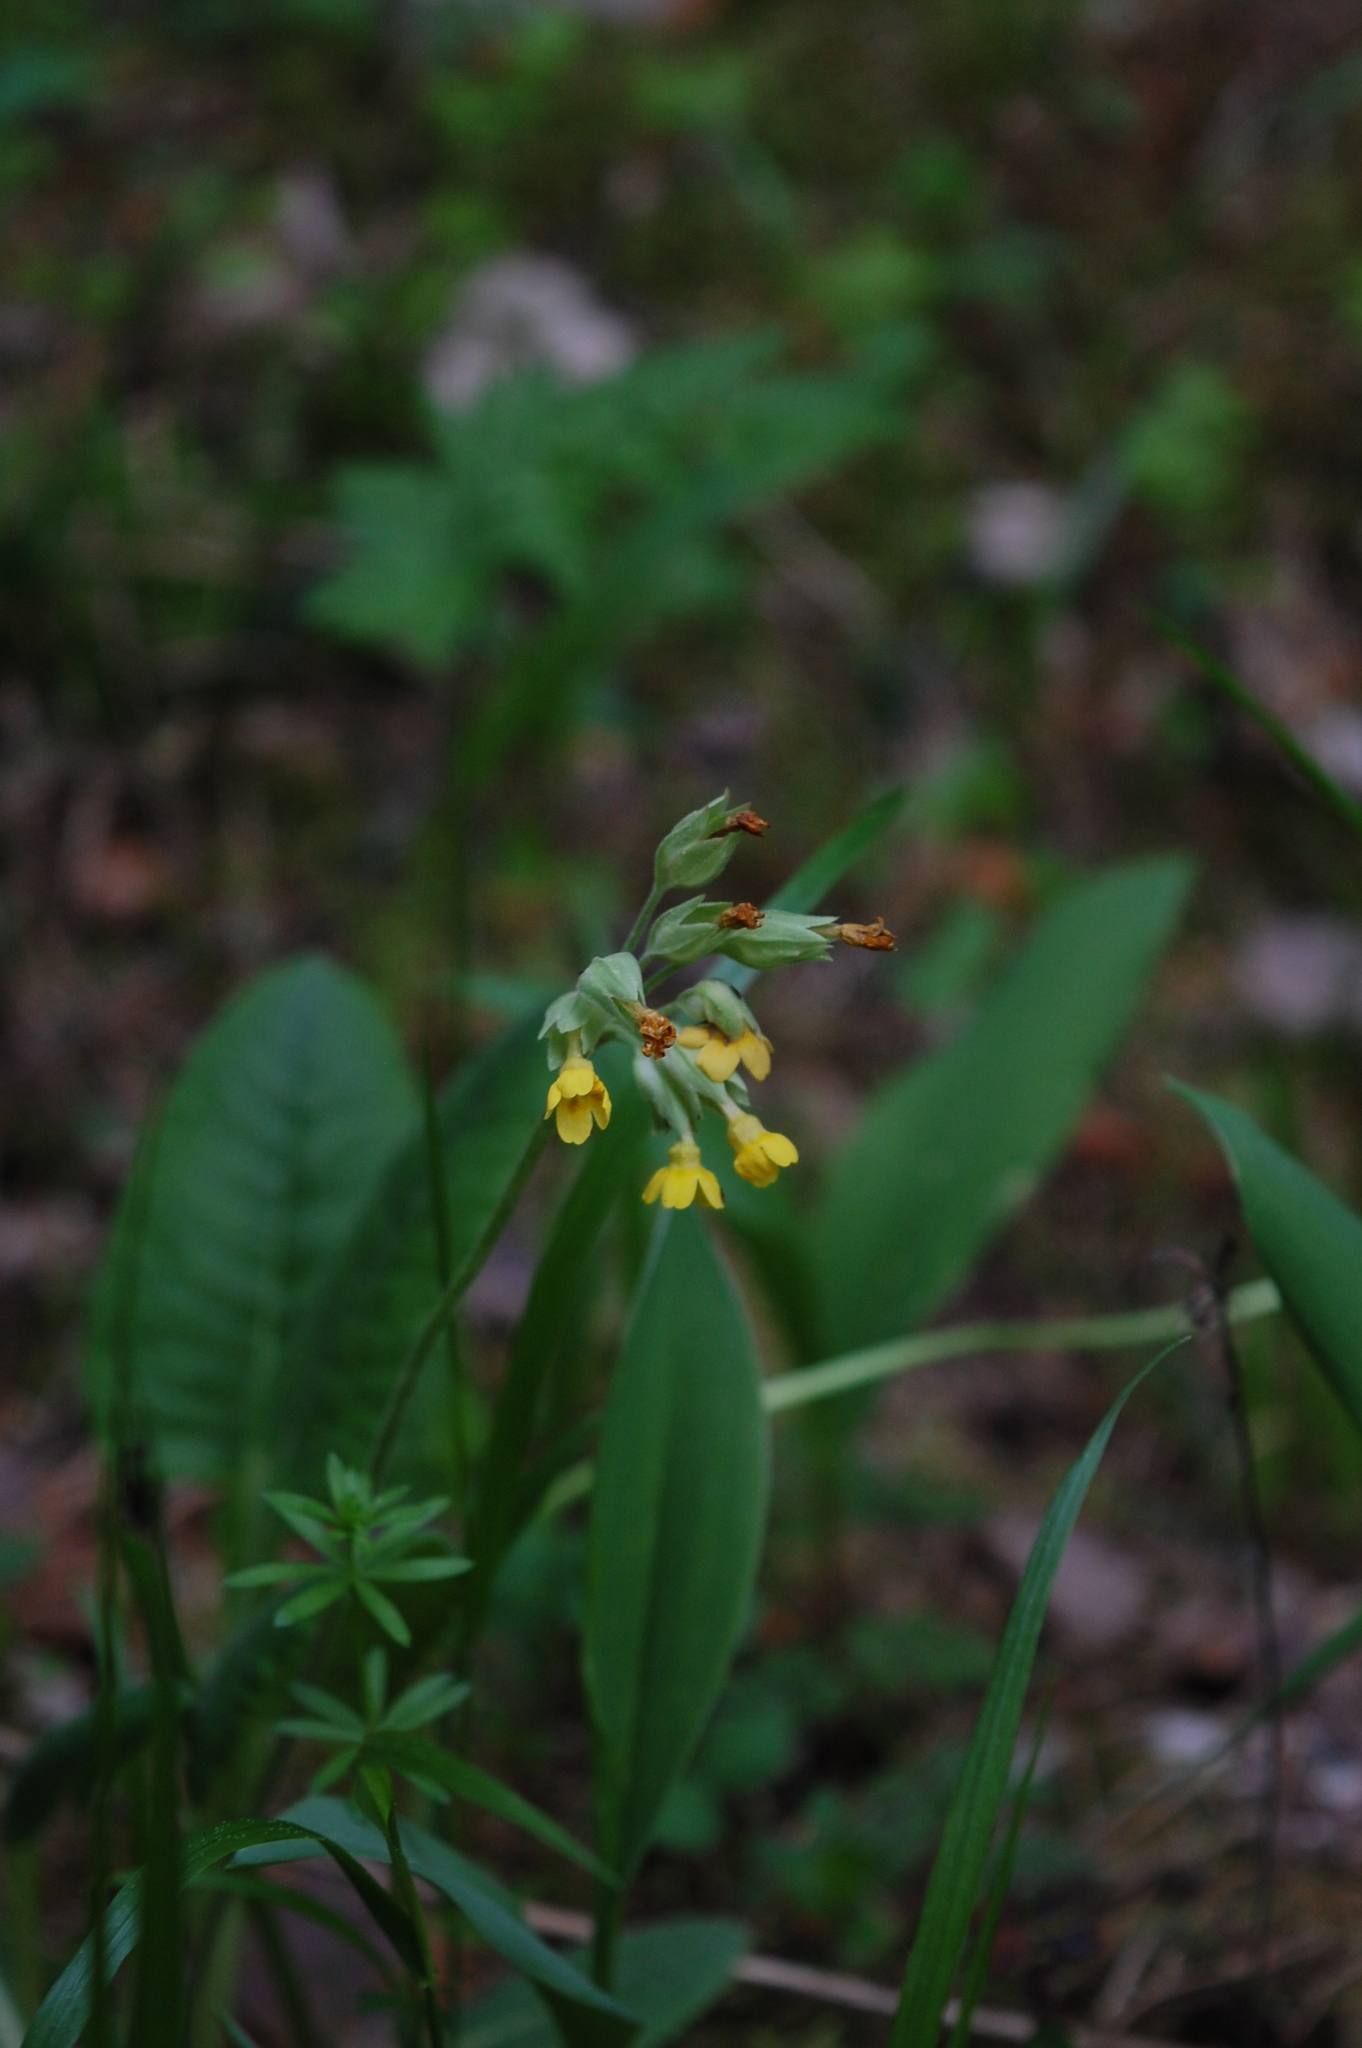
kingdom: Plantae
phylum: Tracheophyta
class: Magnoliopsida
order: Ericales
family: Primulaceae
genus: Primula
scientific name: Primula veris
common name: Cowslip
